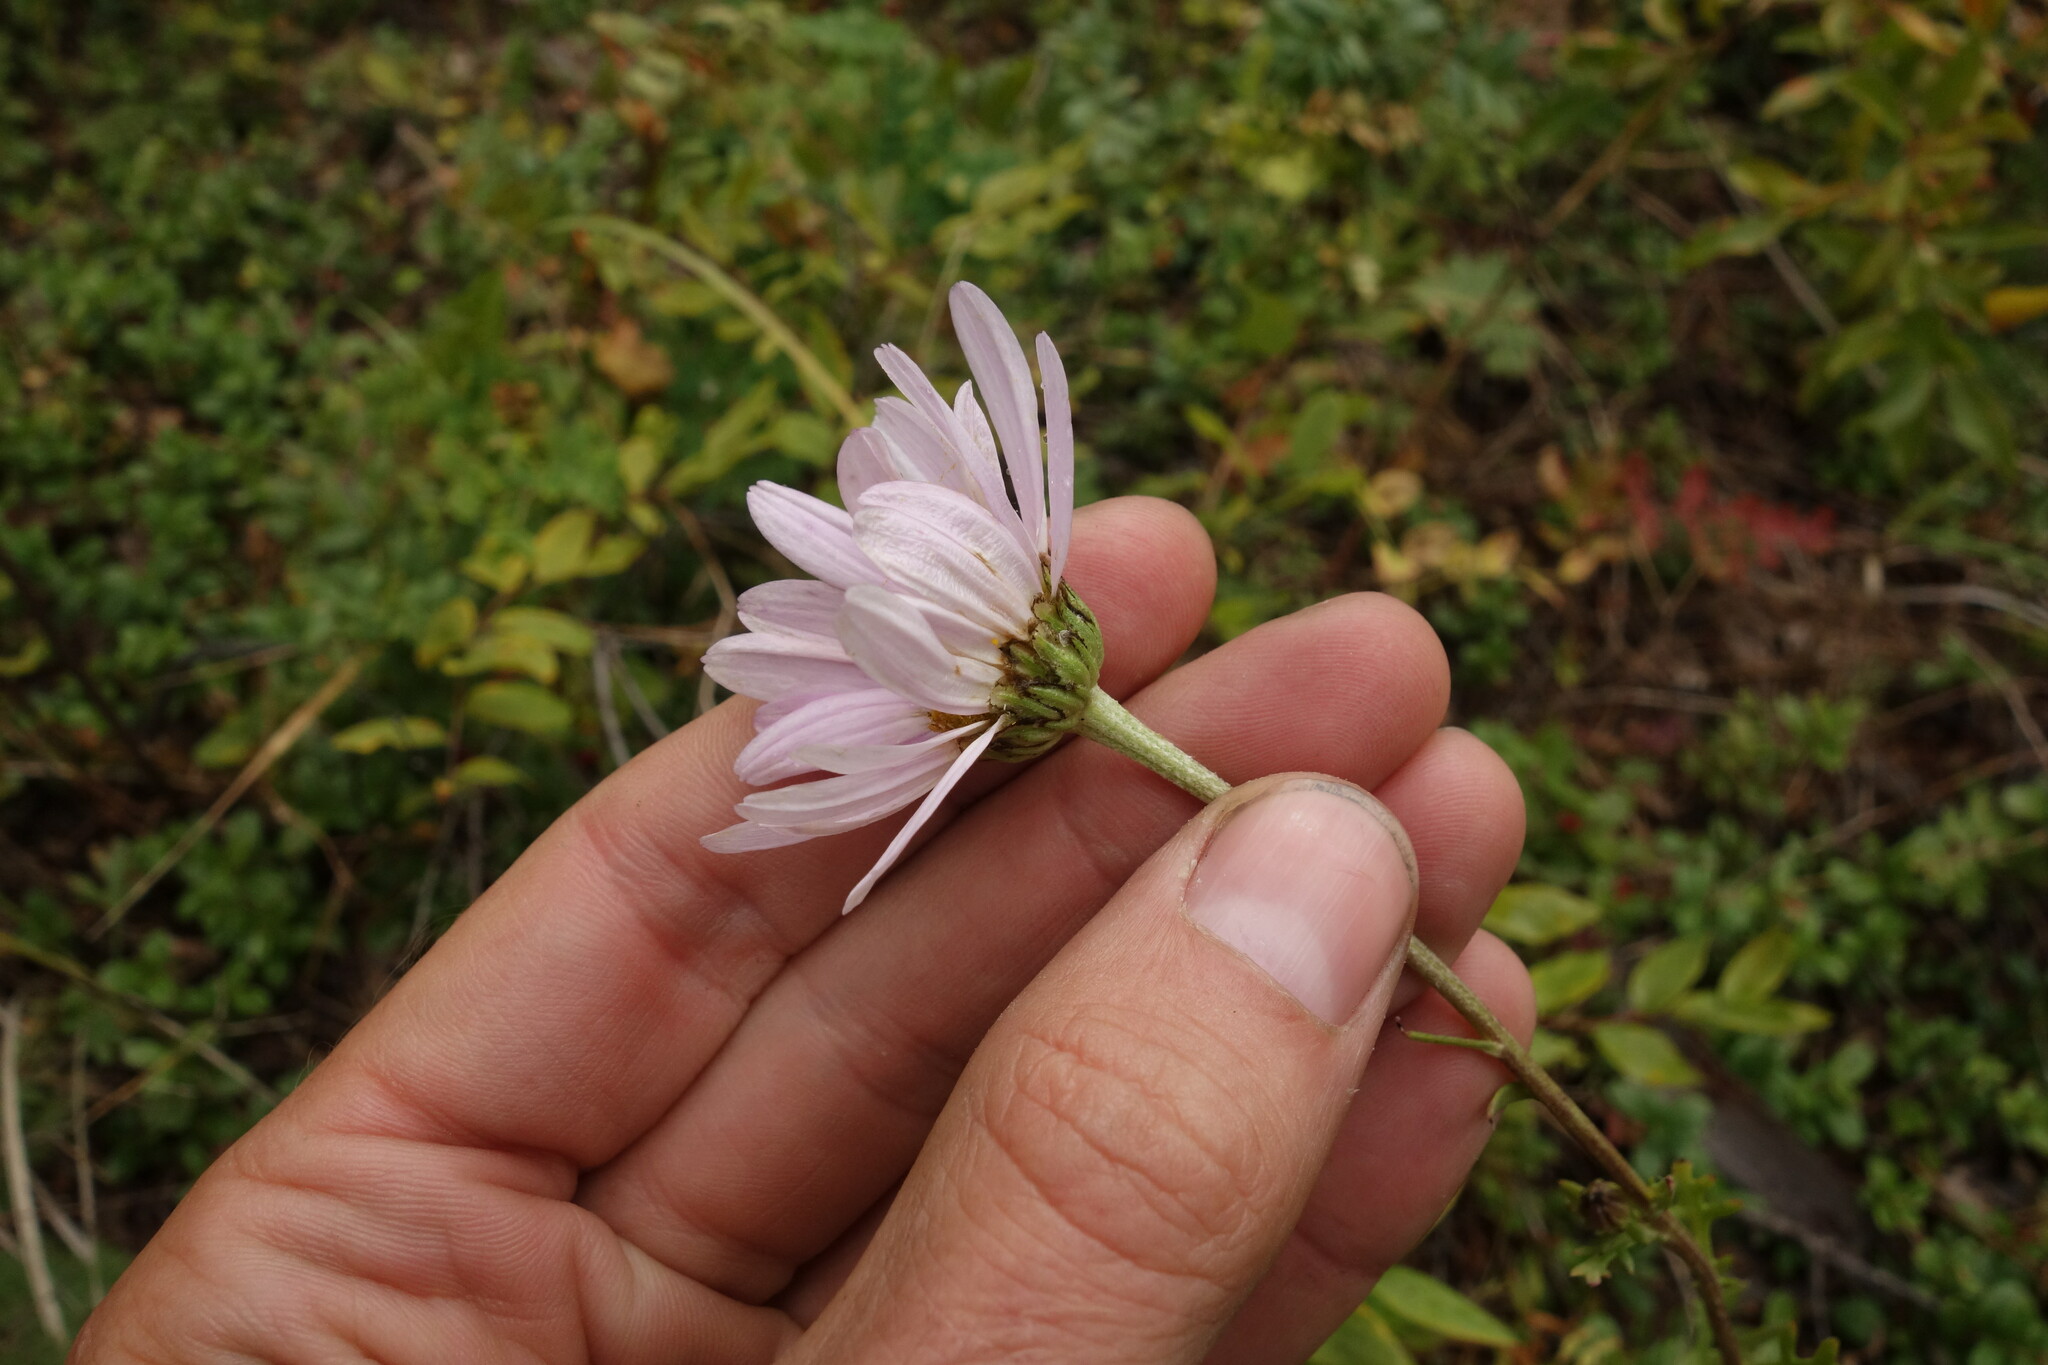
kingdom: Plantae
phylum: Tracheophyta
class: Magnoliopsida
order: Asterales
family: Asteraceae
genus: Chrysanthemum
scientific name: Chrysanthemum zawadzkii
